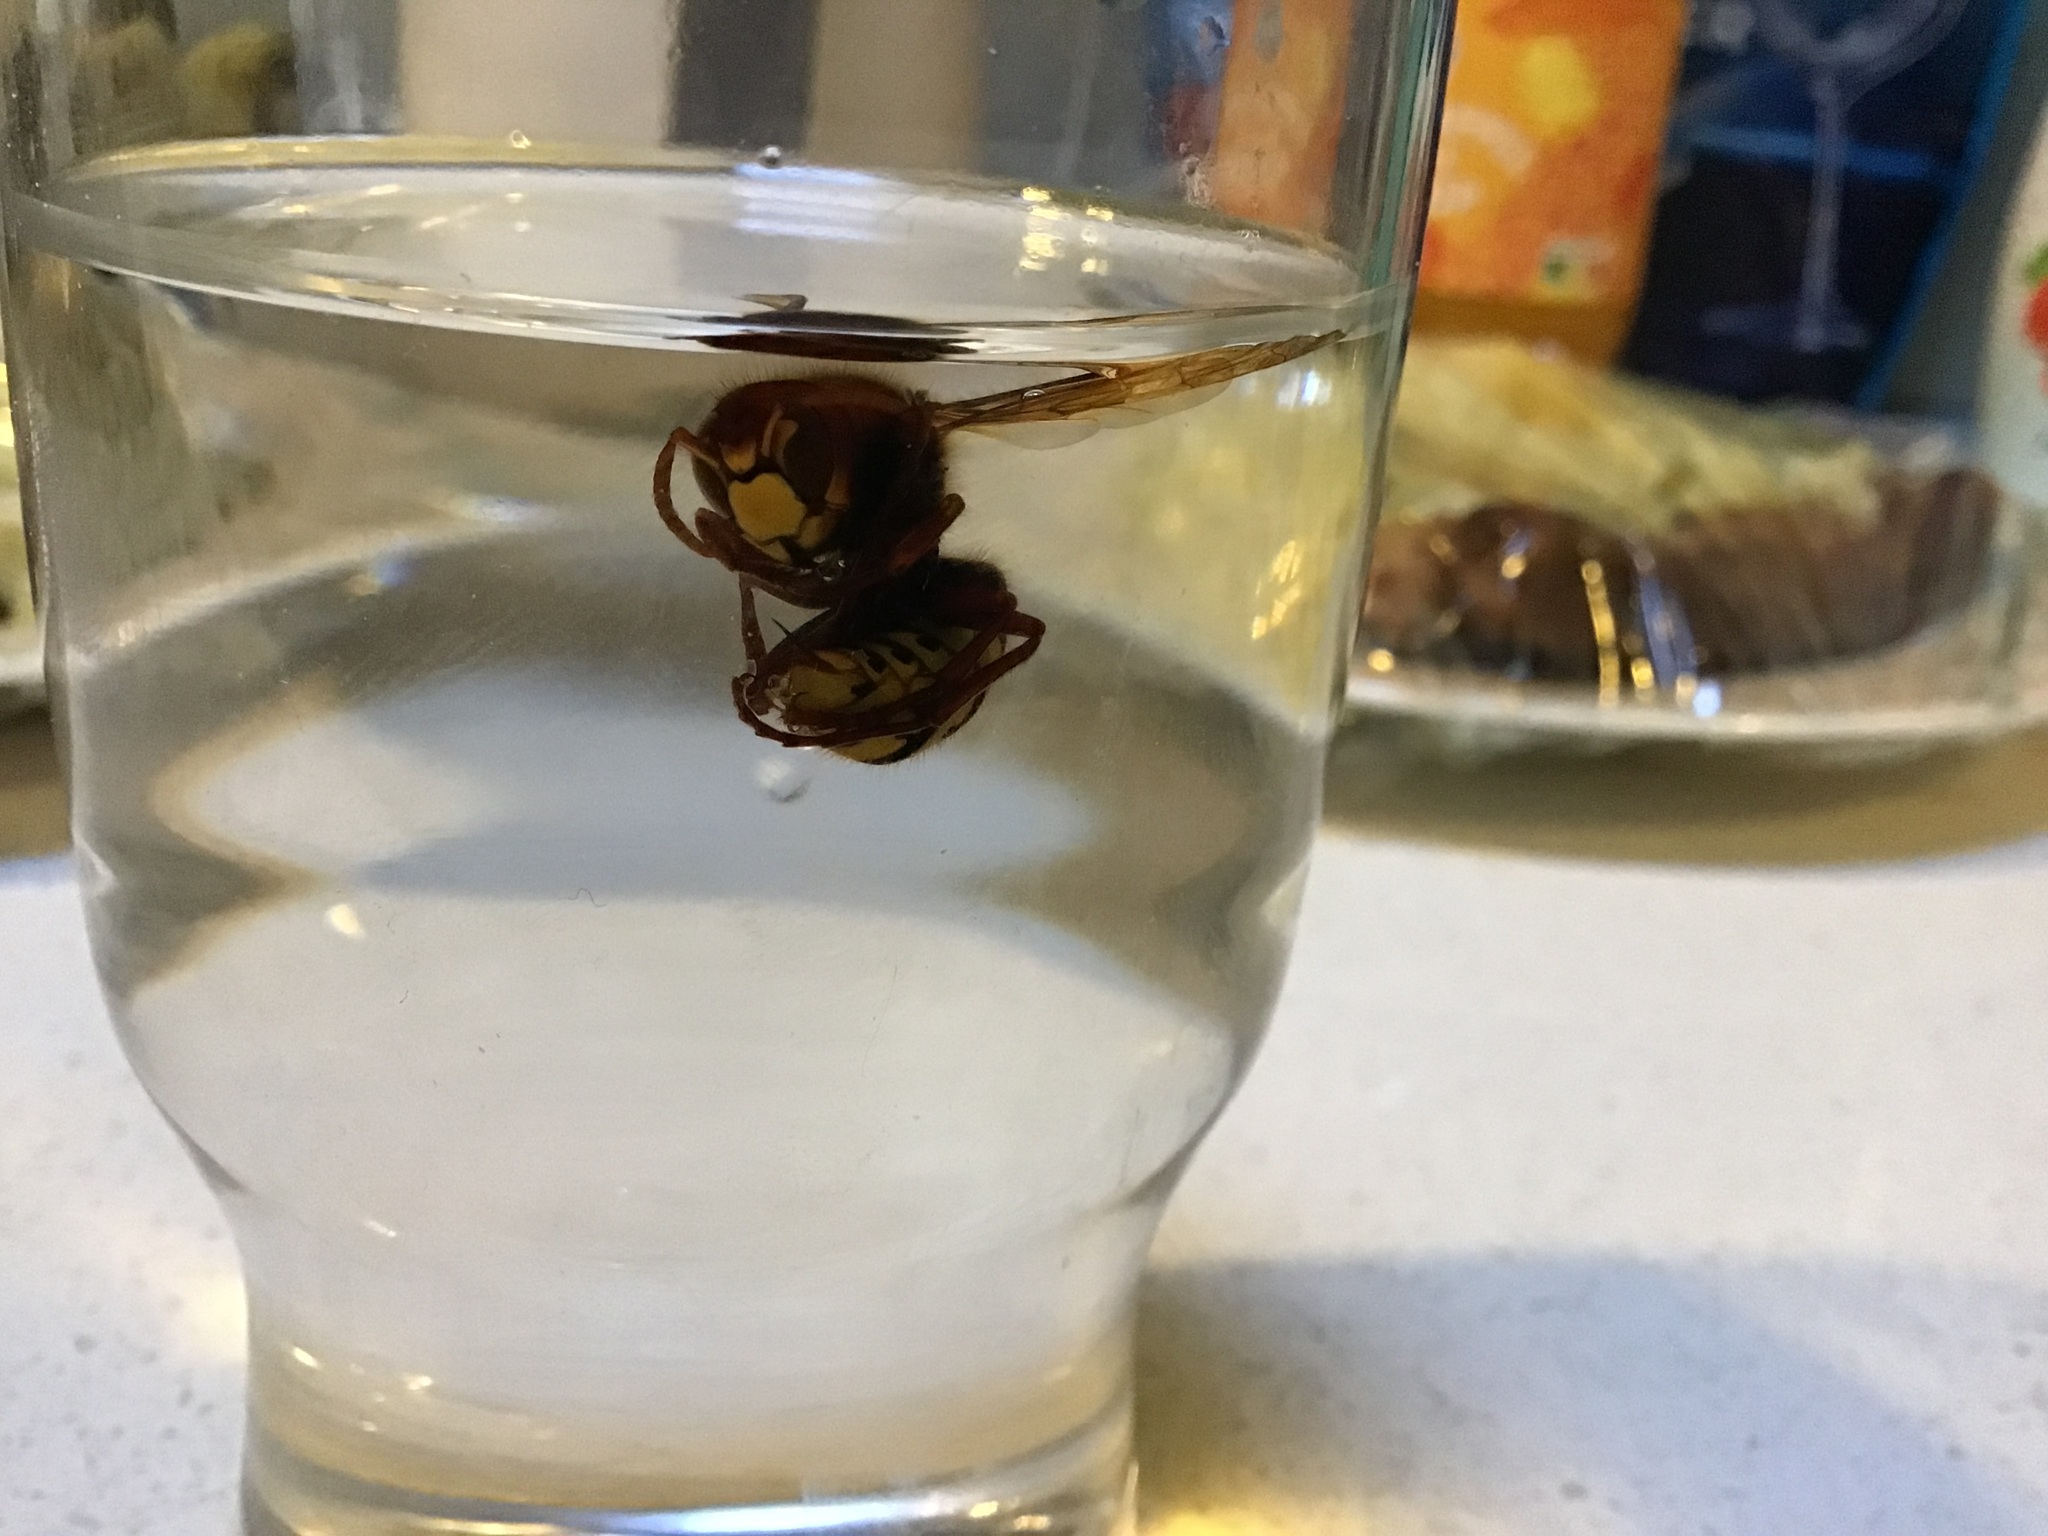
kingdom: Animalia
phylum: Arthropoda
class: Insecta
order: Hymenoptera
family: Vespidae
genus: Vespa
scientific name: Vespa crabro
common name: Hornet
